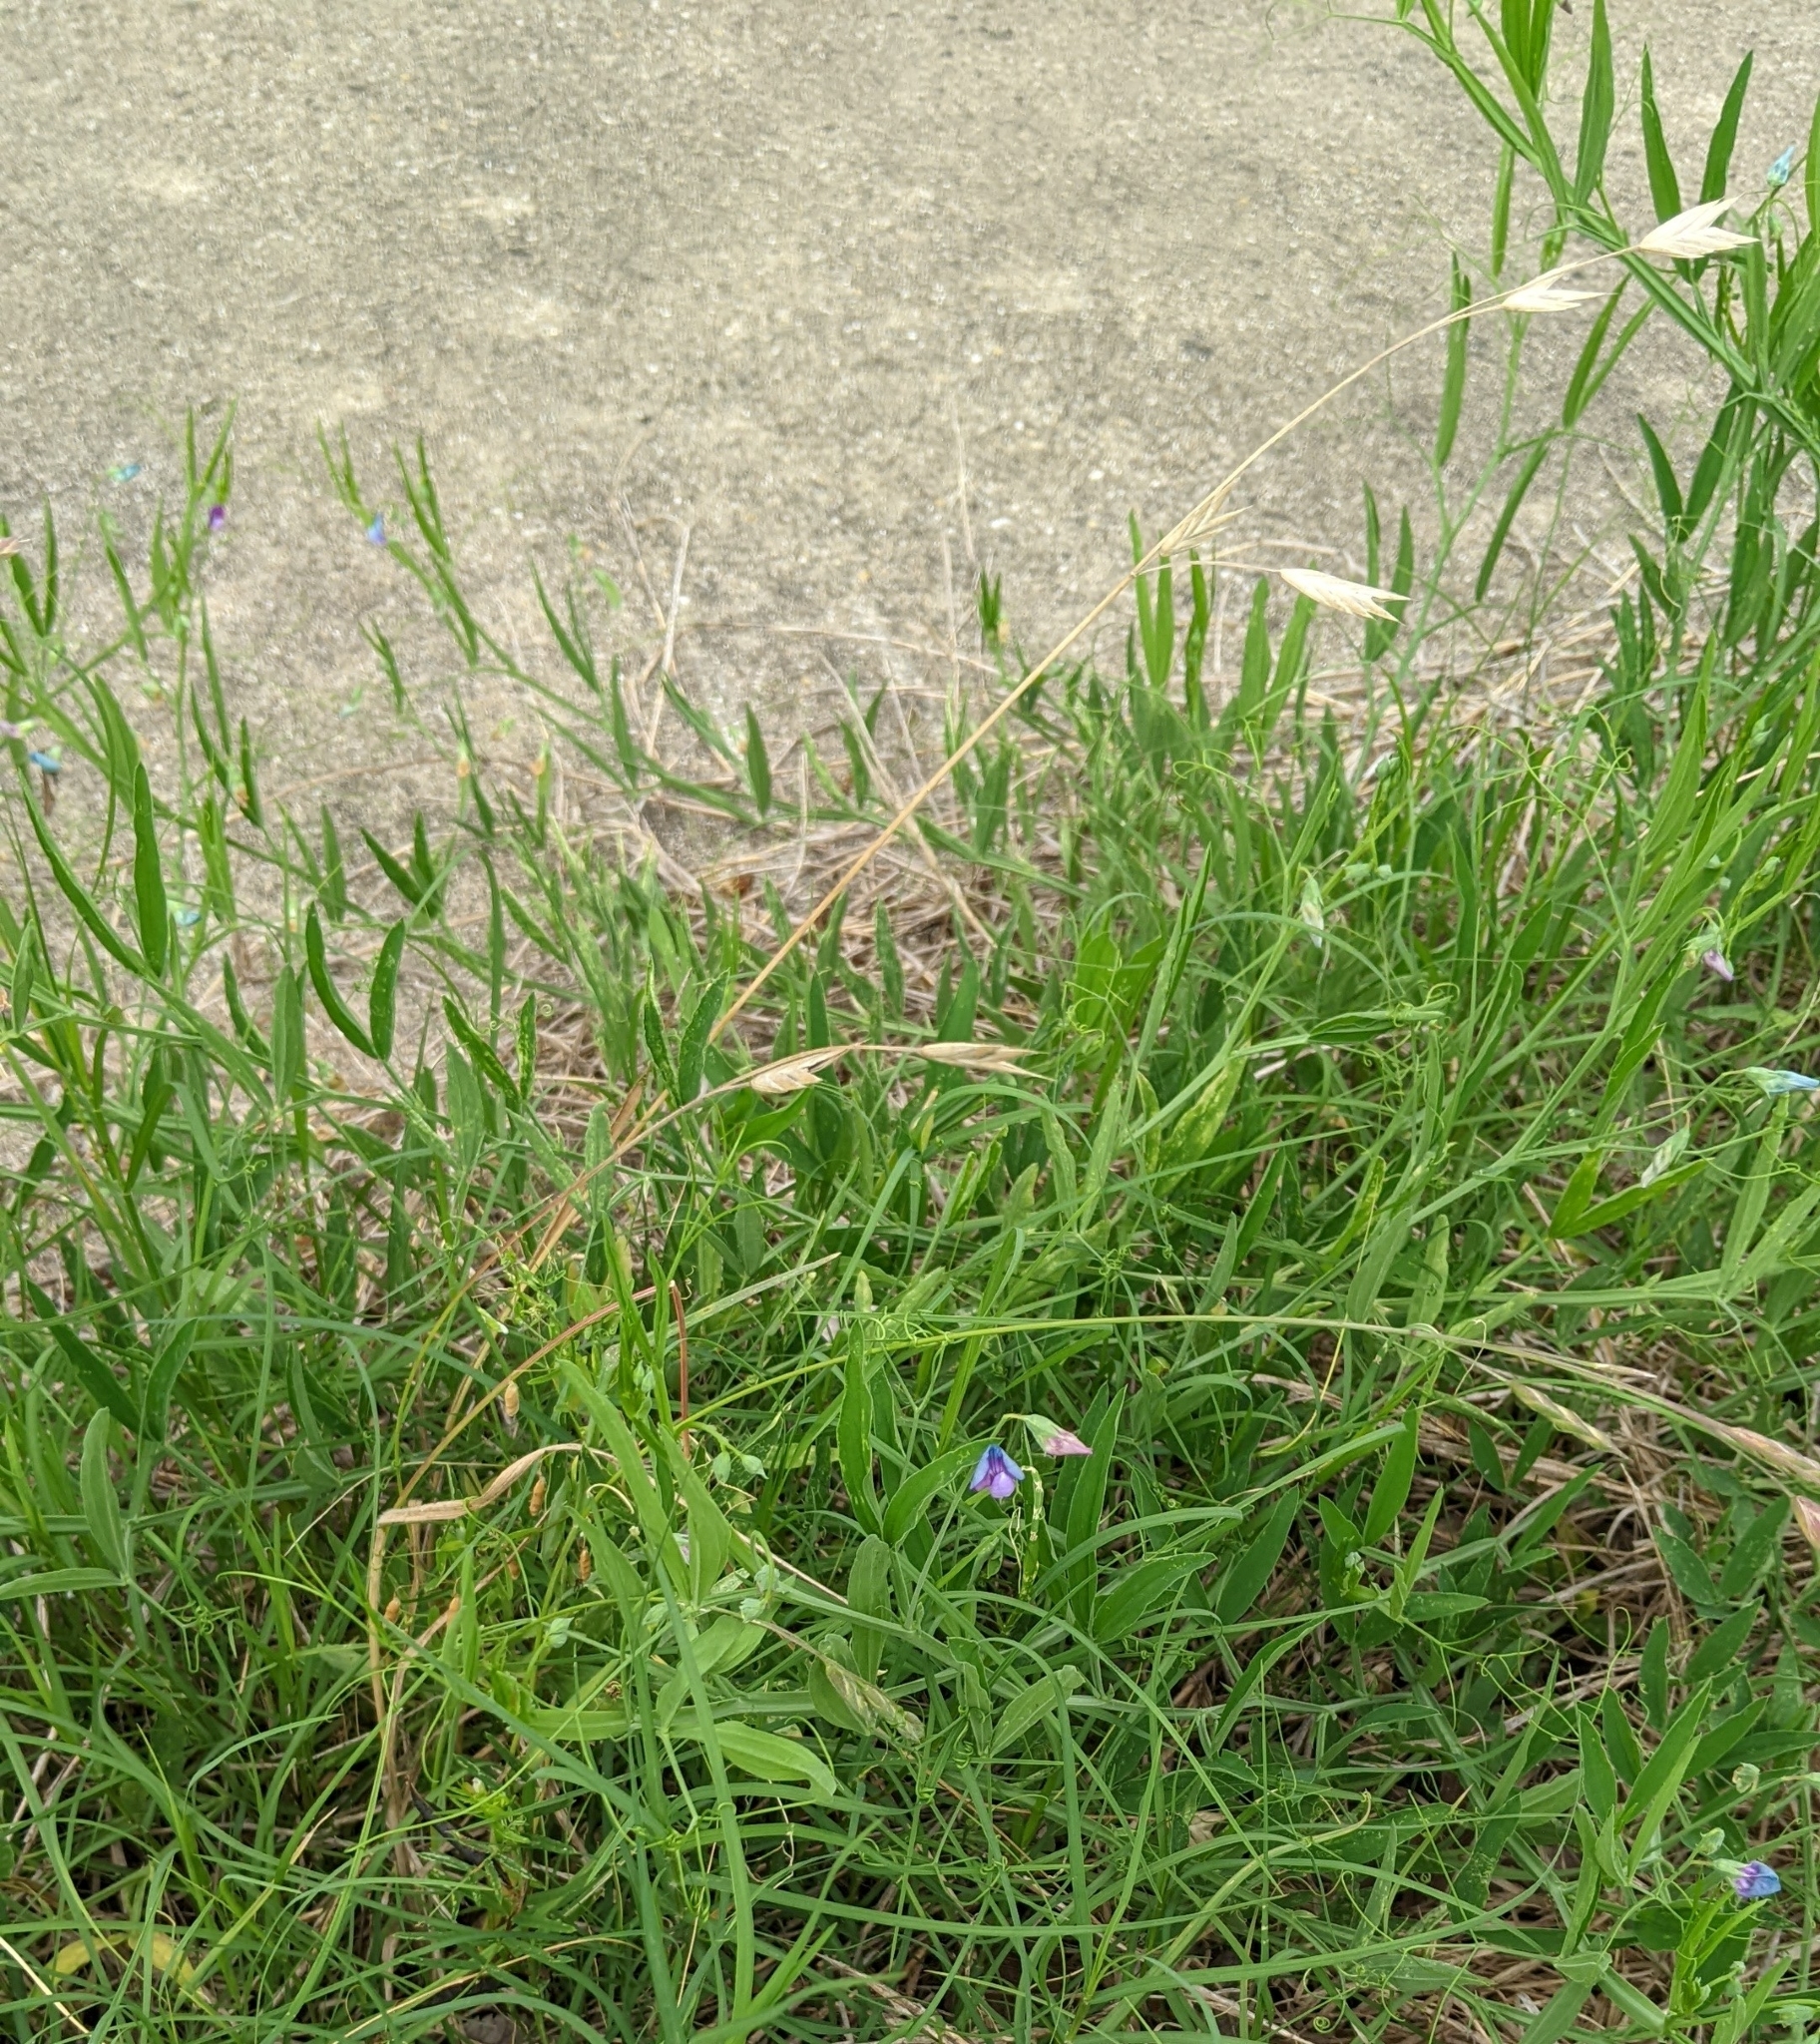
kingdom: Plantae
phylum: Tracheophyta
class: Magnoliopsida
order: Fabales
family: Fabaceae
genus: Lathyrus
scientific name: Lathyrus hirsutus
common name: Hairy vetchling
